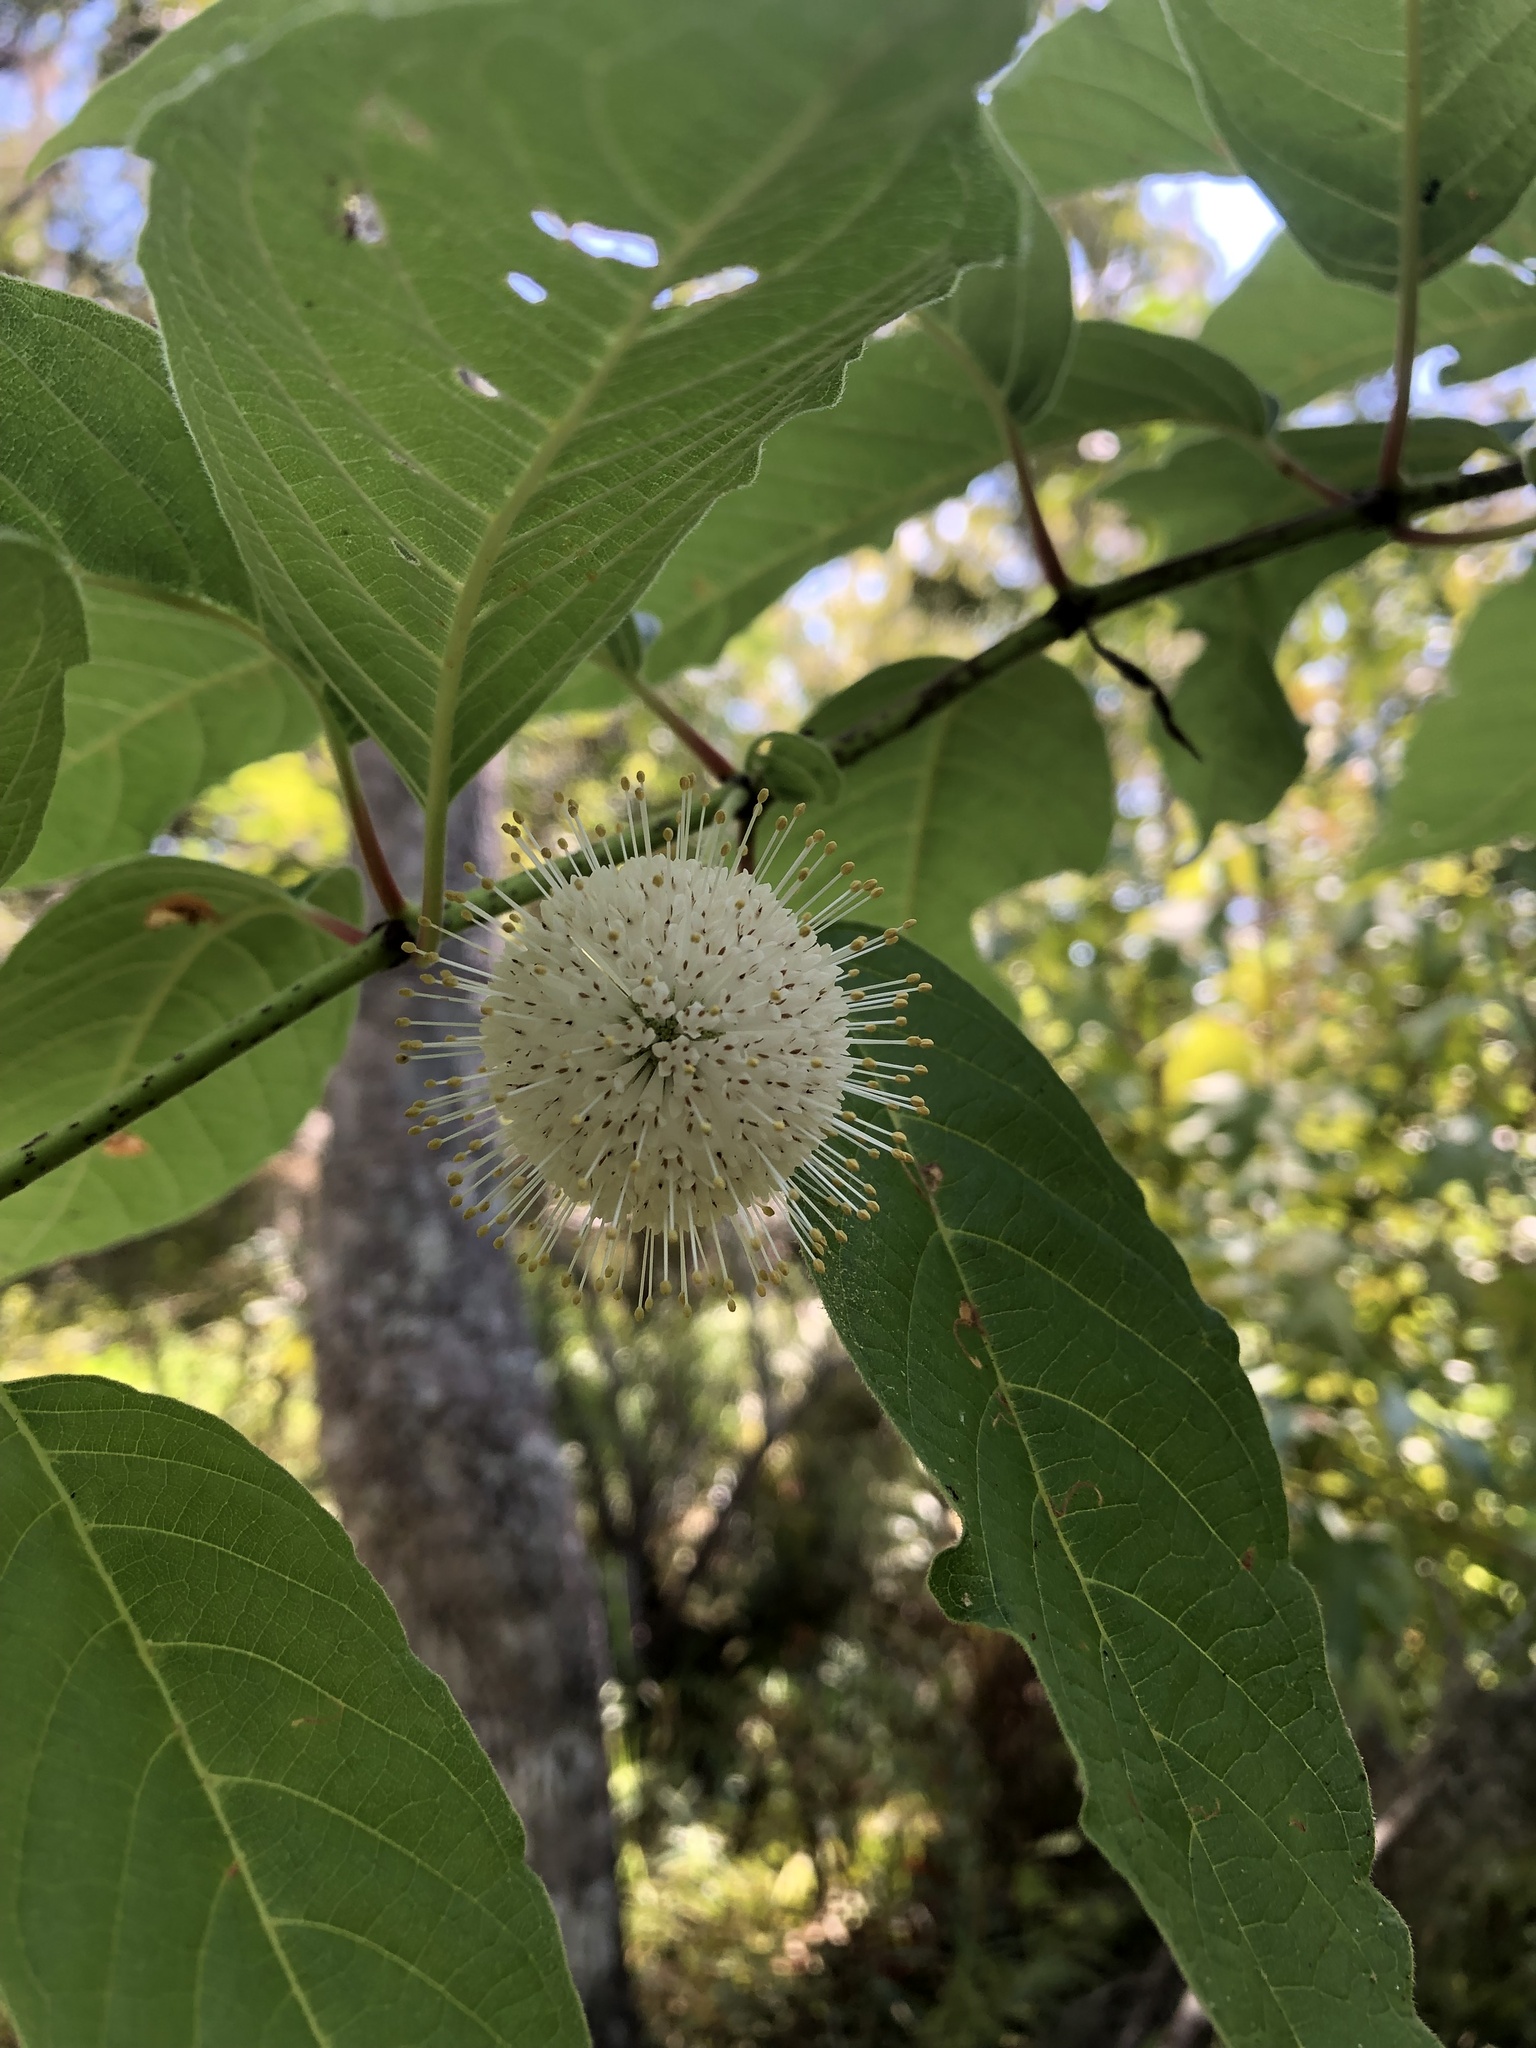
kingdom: Plantae
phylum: Tracheophyta
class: Magnoliopsida
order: Gentianales
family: Rubiaceae
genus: Cephalanthus
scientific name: Cephalanthus occidentalis
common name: Button-willow
